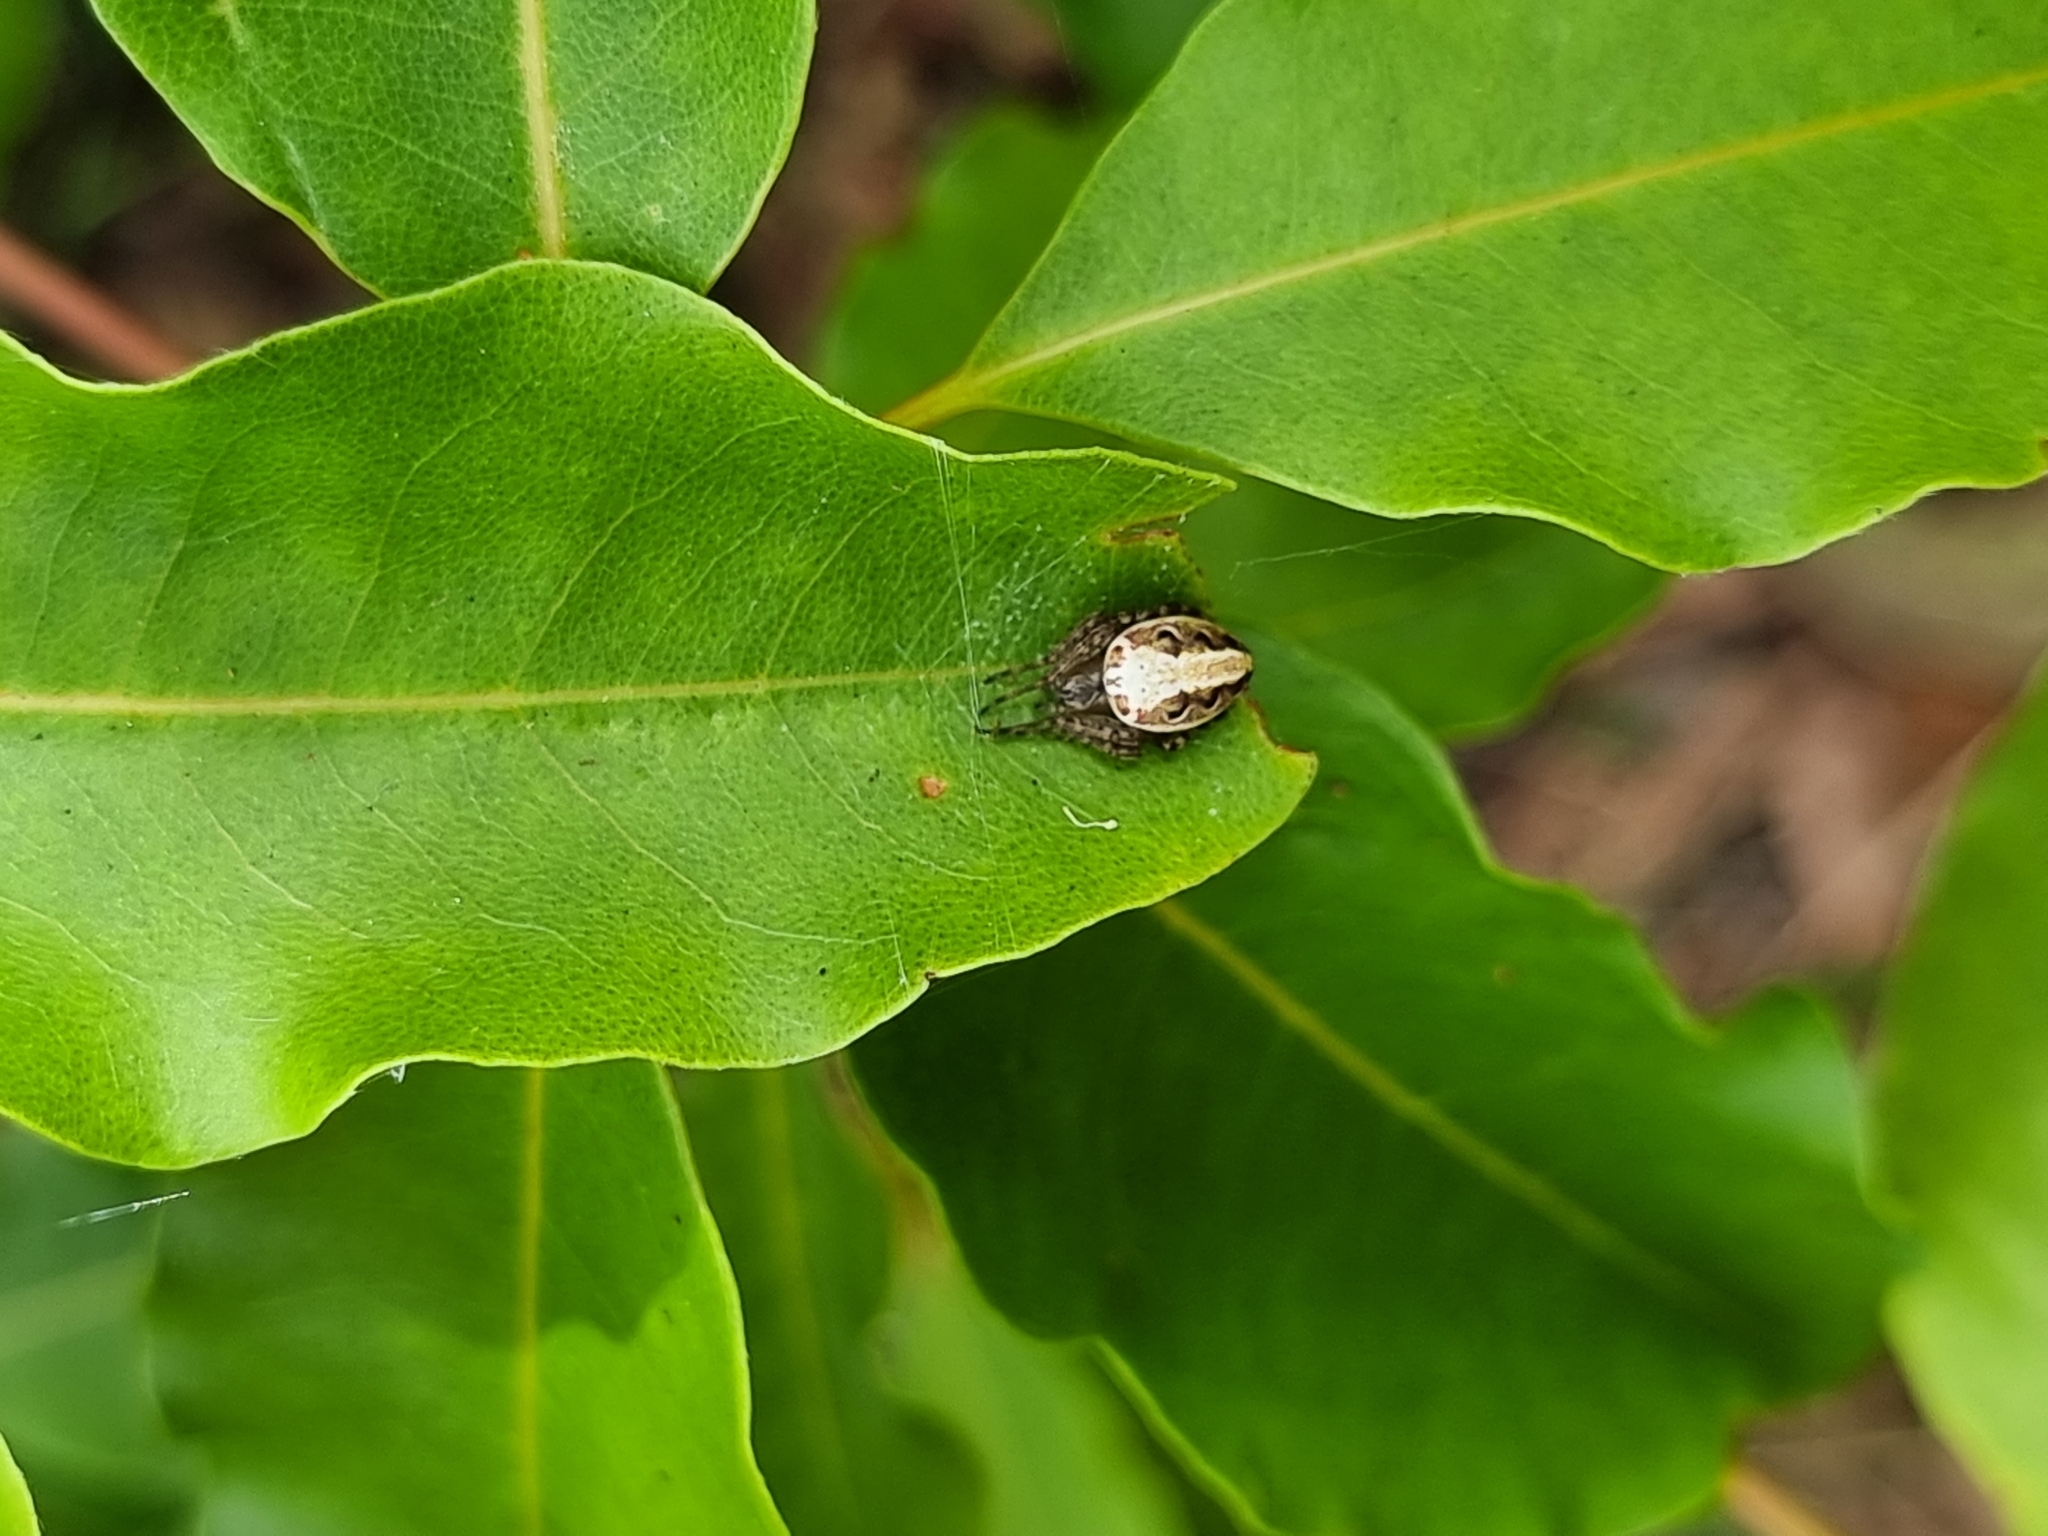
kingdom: Animalia
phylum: Arthropoda
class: Arachnida
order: Araneae
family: Araneidae
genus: Plebs
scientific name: Plebs eburnus
